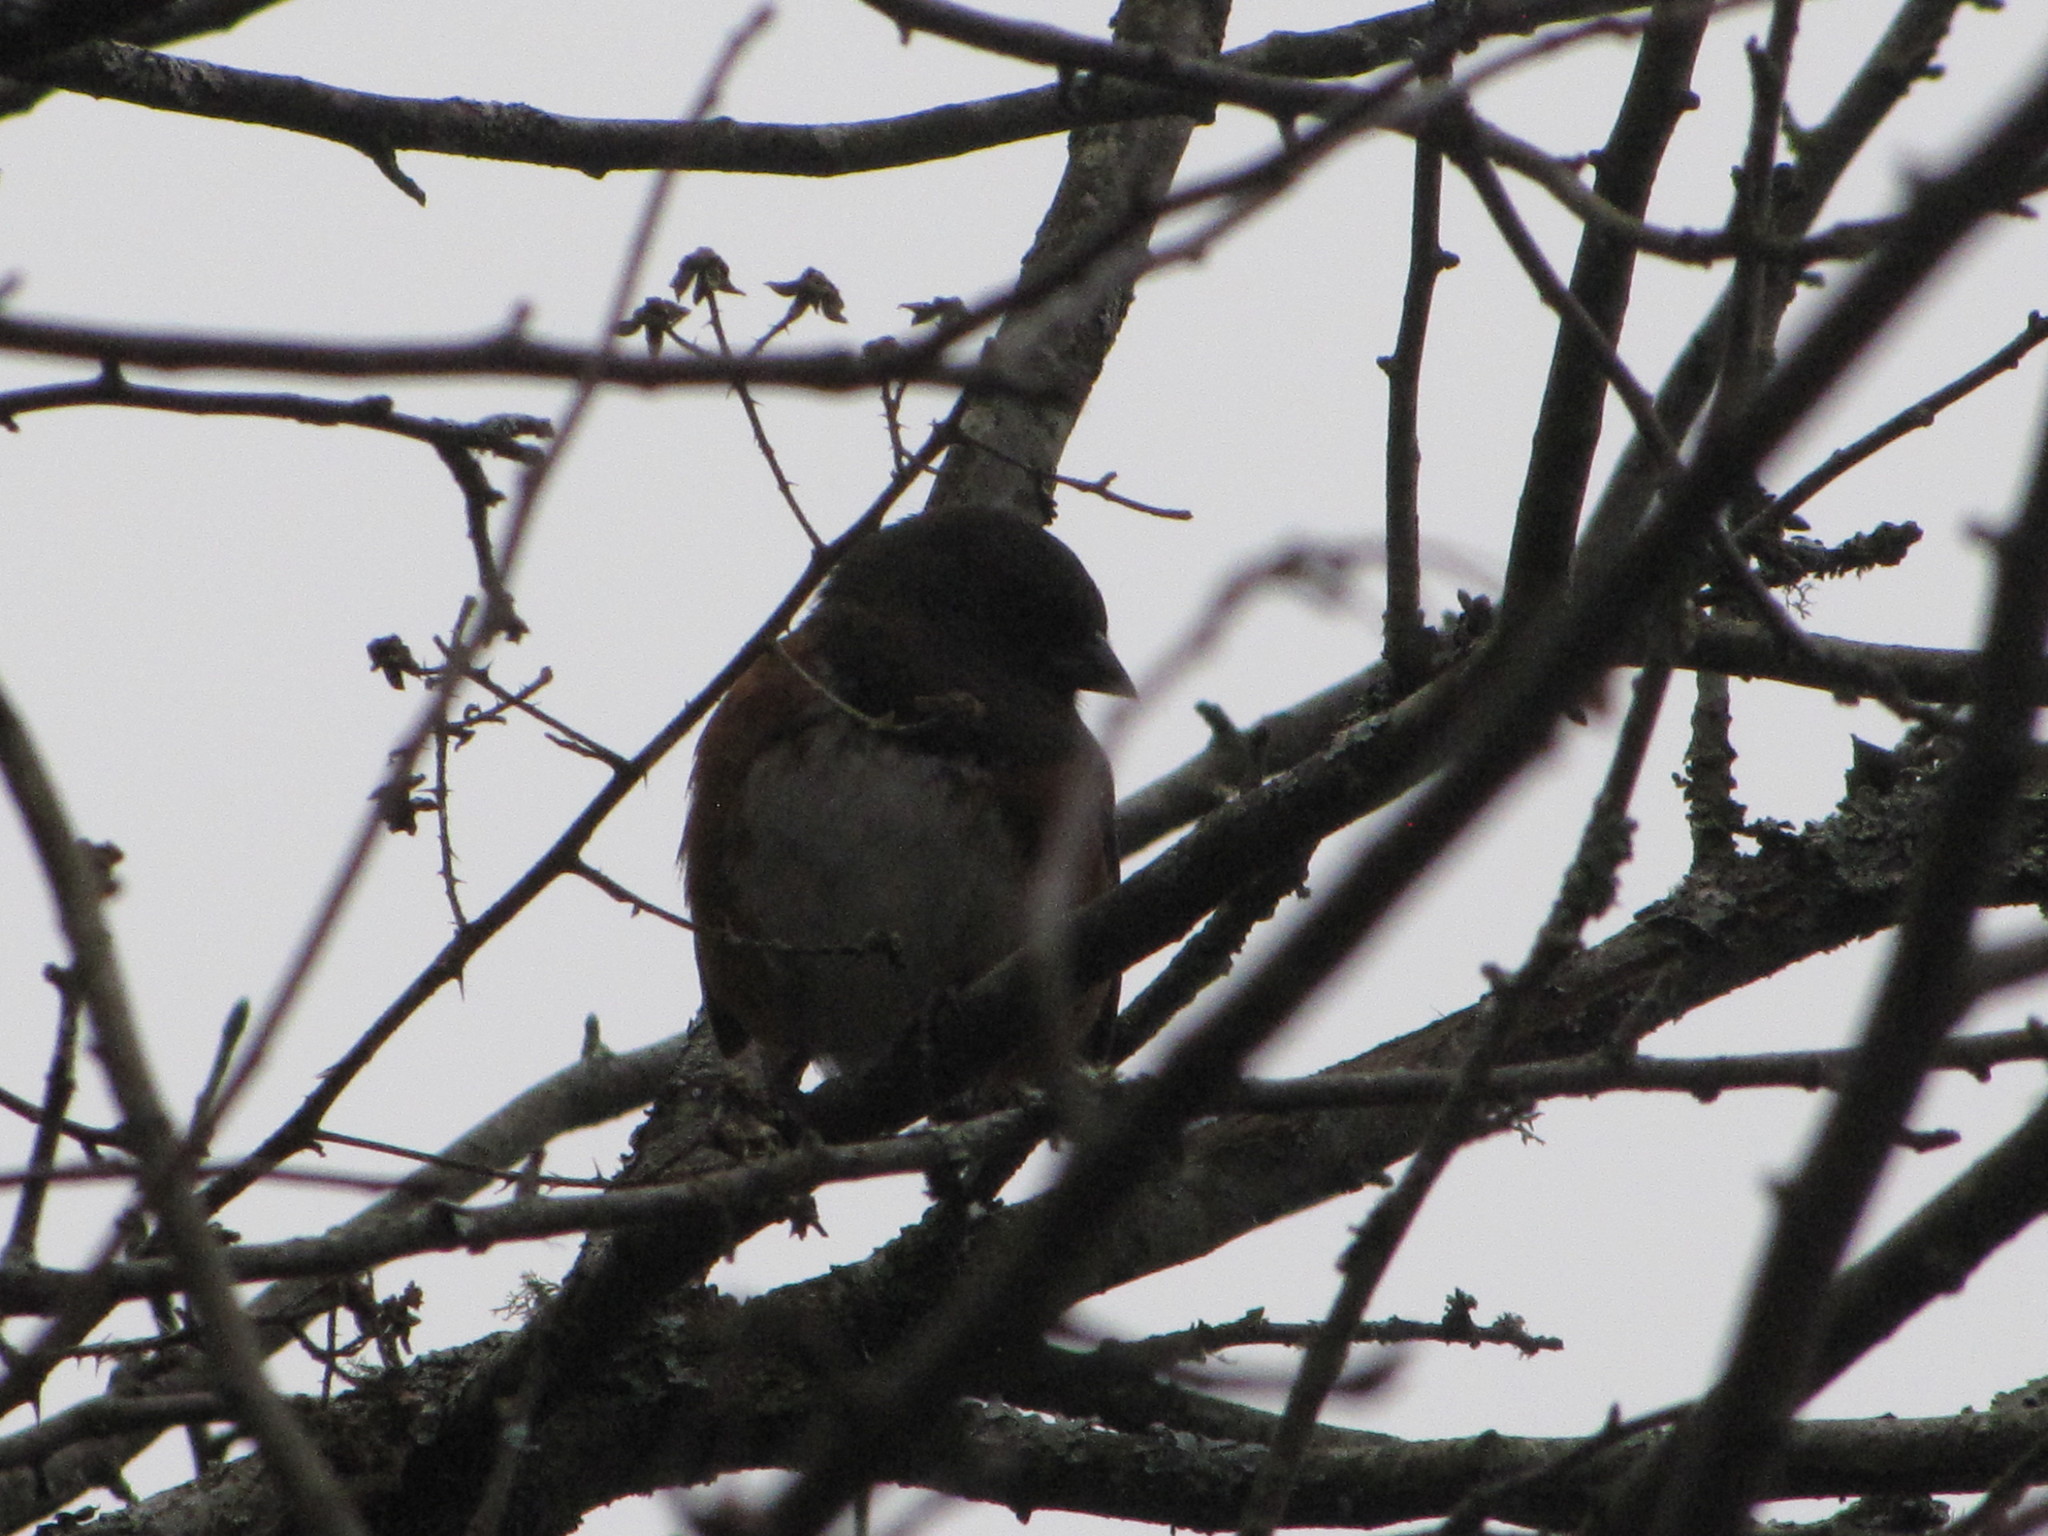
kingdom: Animalia
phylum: Chordata
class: Aves
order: Passeriformes
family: Passerellidae
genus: Pipilo
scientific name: Pipilo maculatus
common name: Spotted towhee
